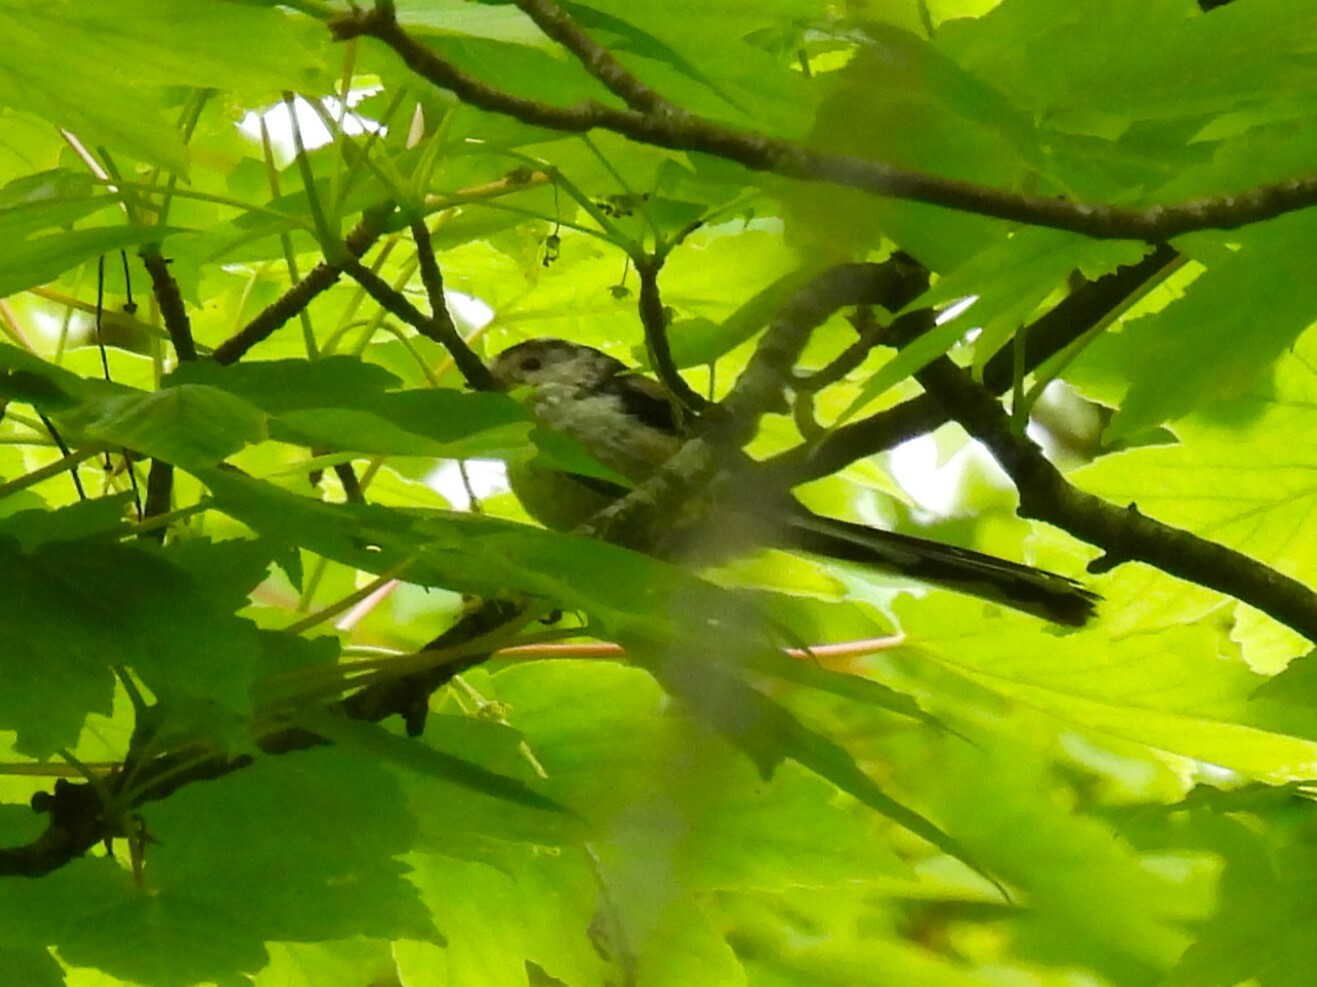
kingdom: Animalia
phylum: Chordata
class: Aves
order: Passeriformes
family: Aegithalidae
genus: Aegithalos
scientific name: Aegithalos caudatus
